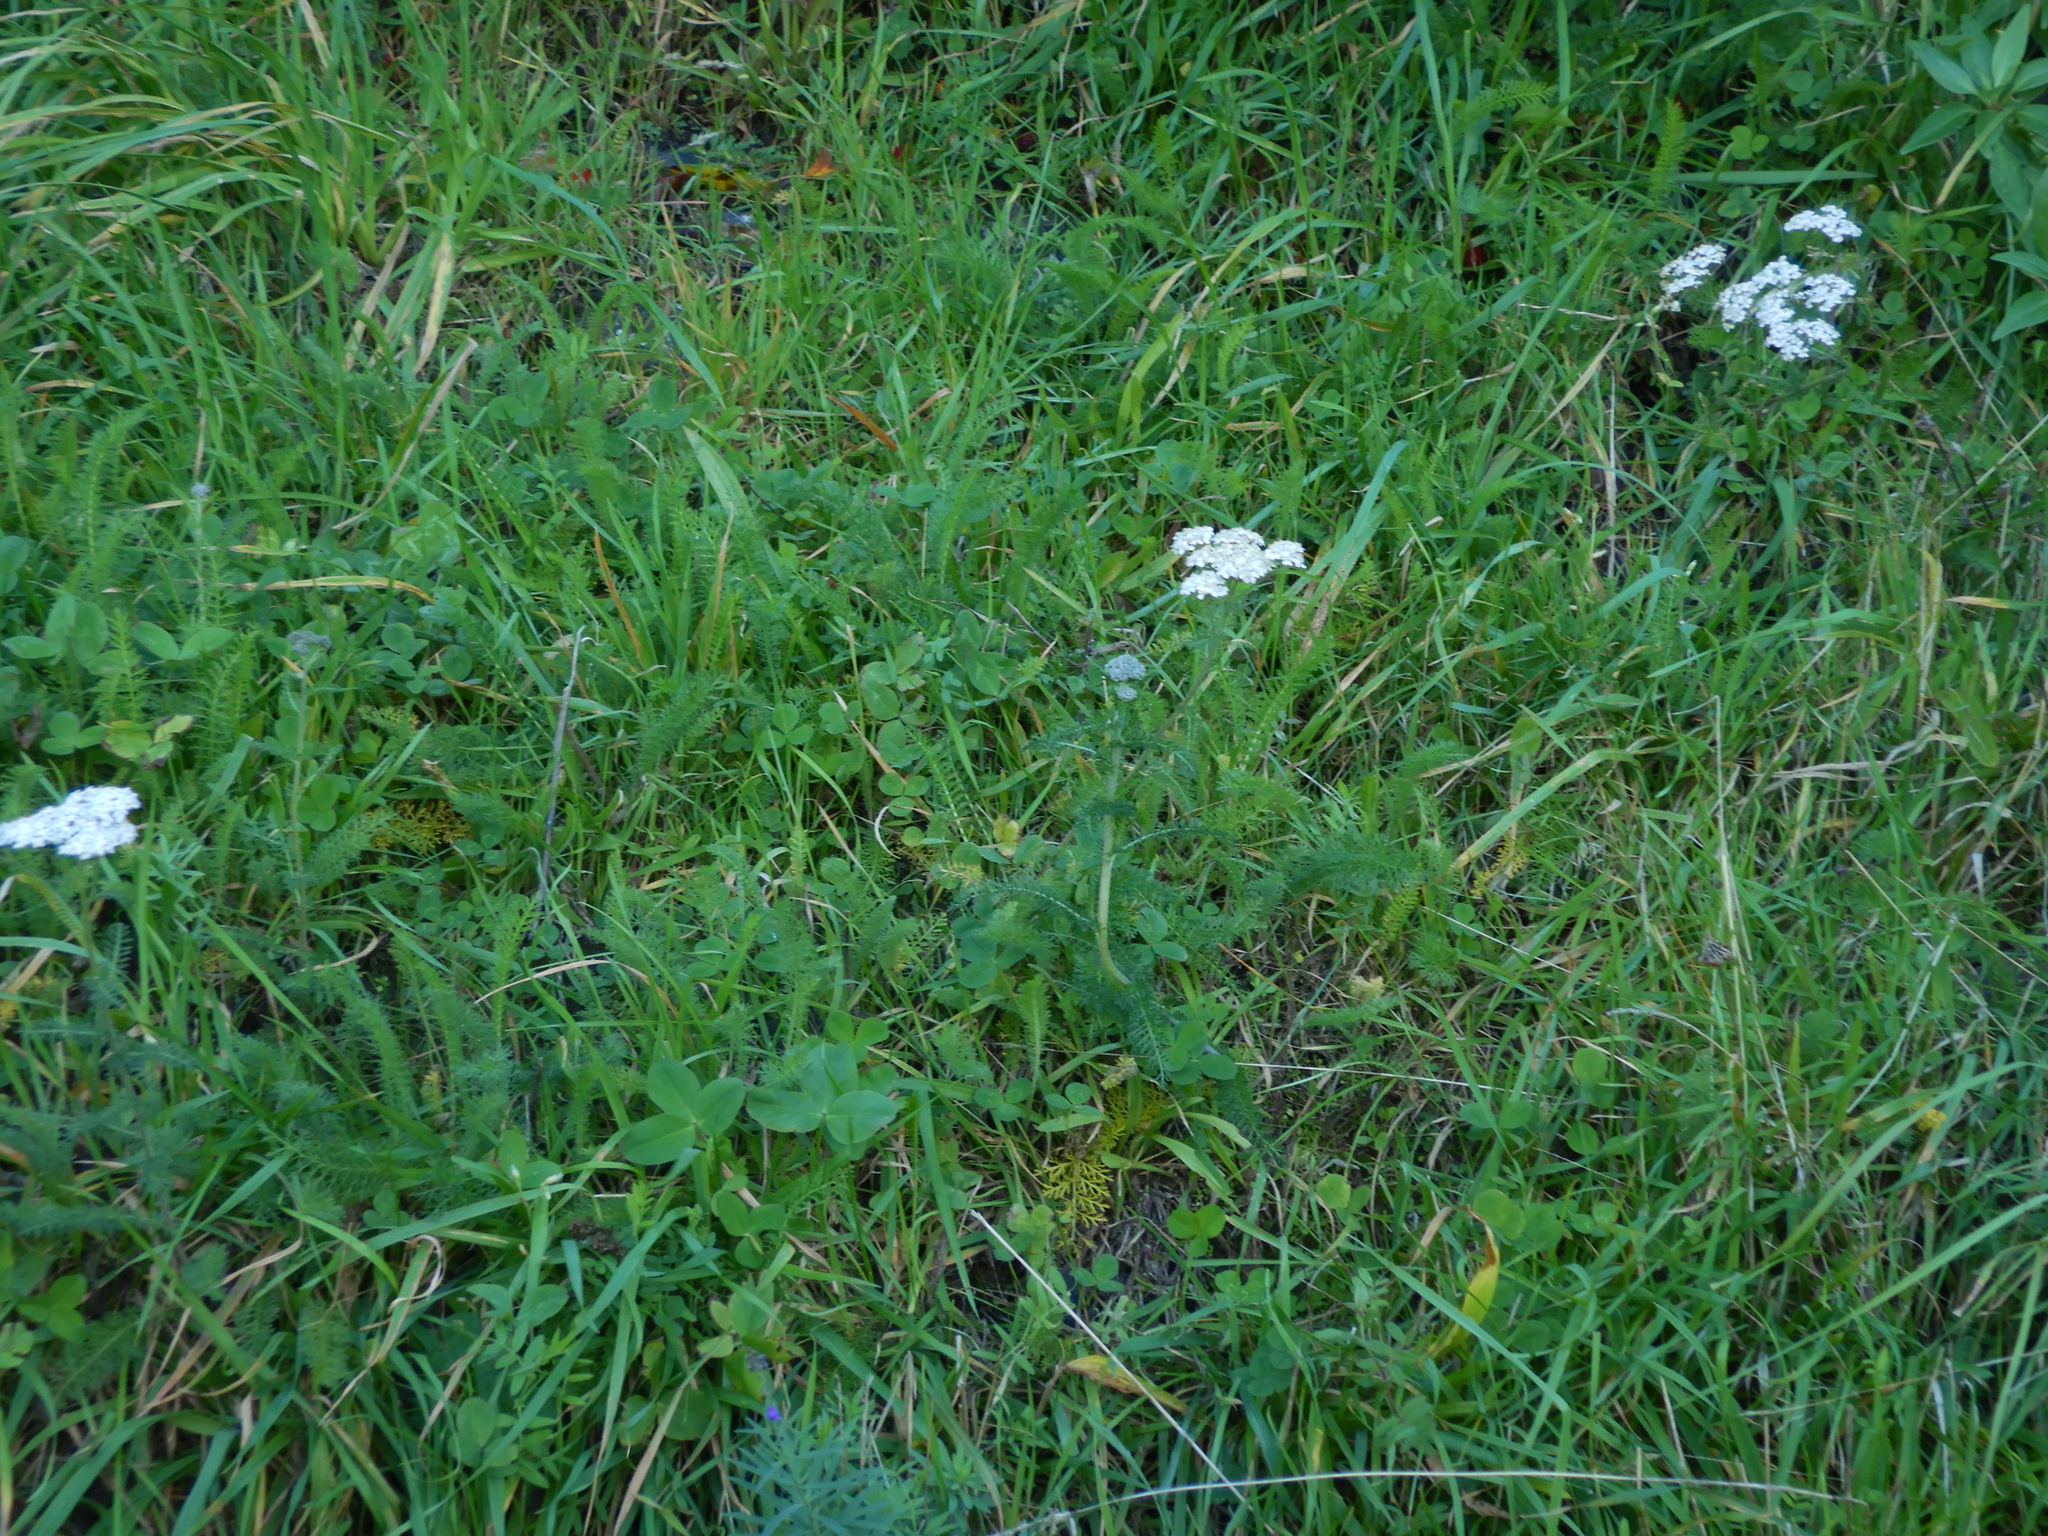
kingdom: Plantae
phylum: Tracheophyta
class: Magnoliopsida
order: Asterales
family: Asteraceae
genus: Achillea
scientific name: Achillea millefolium
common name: Yarrow
